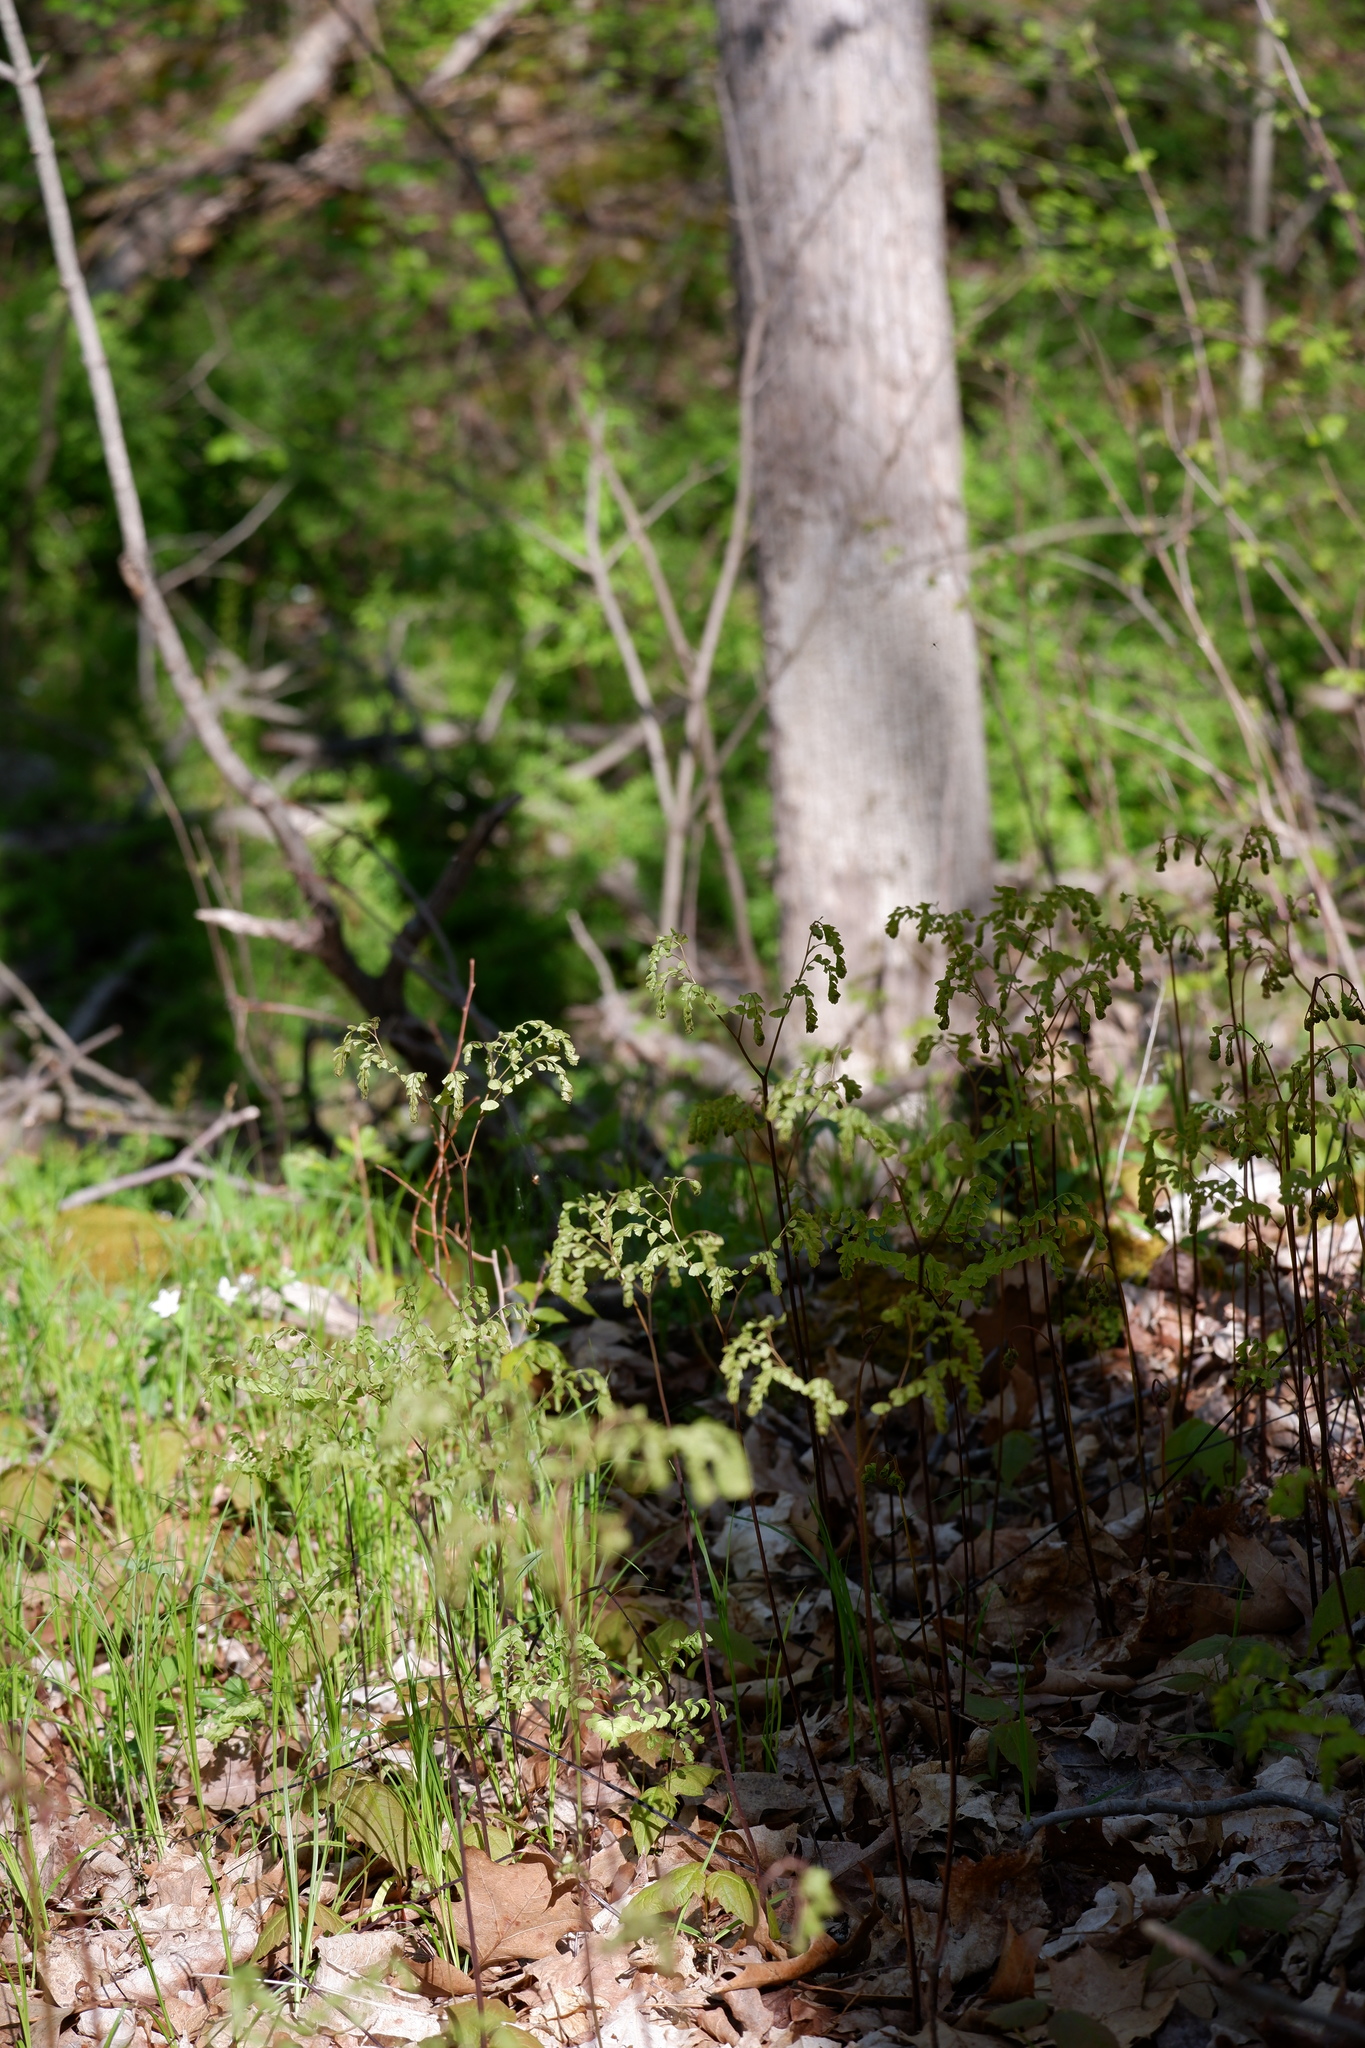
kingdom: Plantae
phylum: Tracheophyta
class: Polypodiopsida
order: Polypodiales
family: Pteridaceae
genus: Adiantum
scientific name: Adiantum pedatum
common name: Five-finger fern
